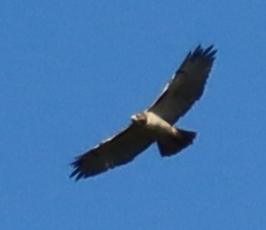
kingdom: Animalia
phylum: Chordata
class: Aves
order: Accipitriformes
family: Accipitridae
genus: Buteo
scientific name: Buteo jamaicensis
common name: Red-tailed hawk
